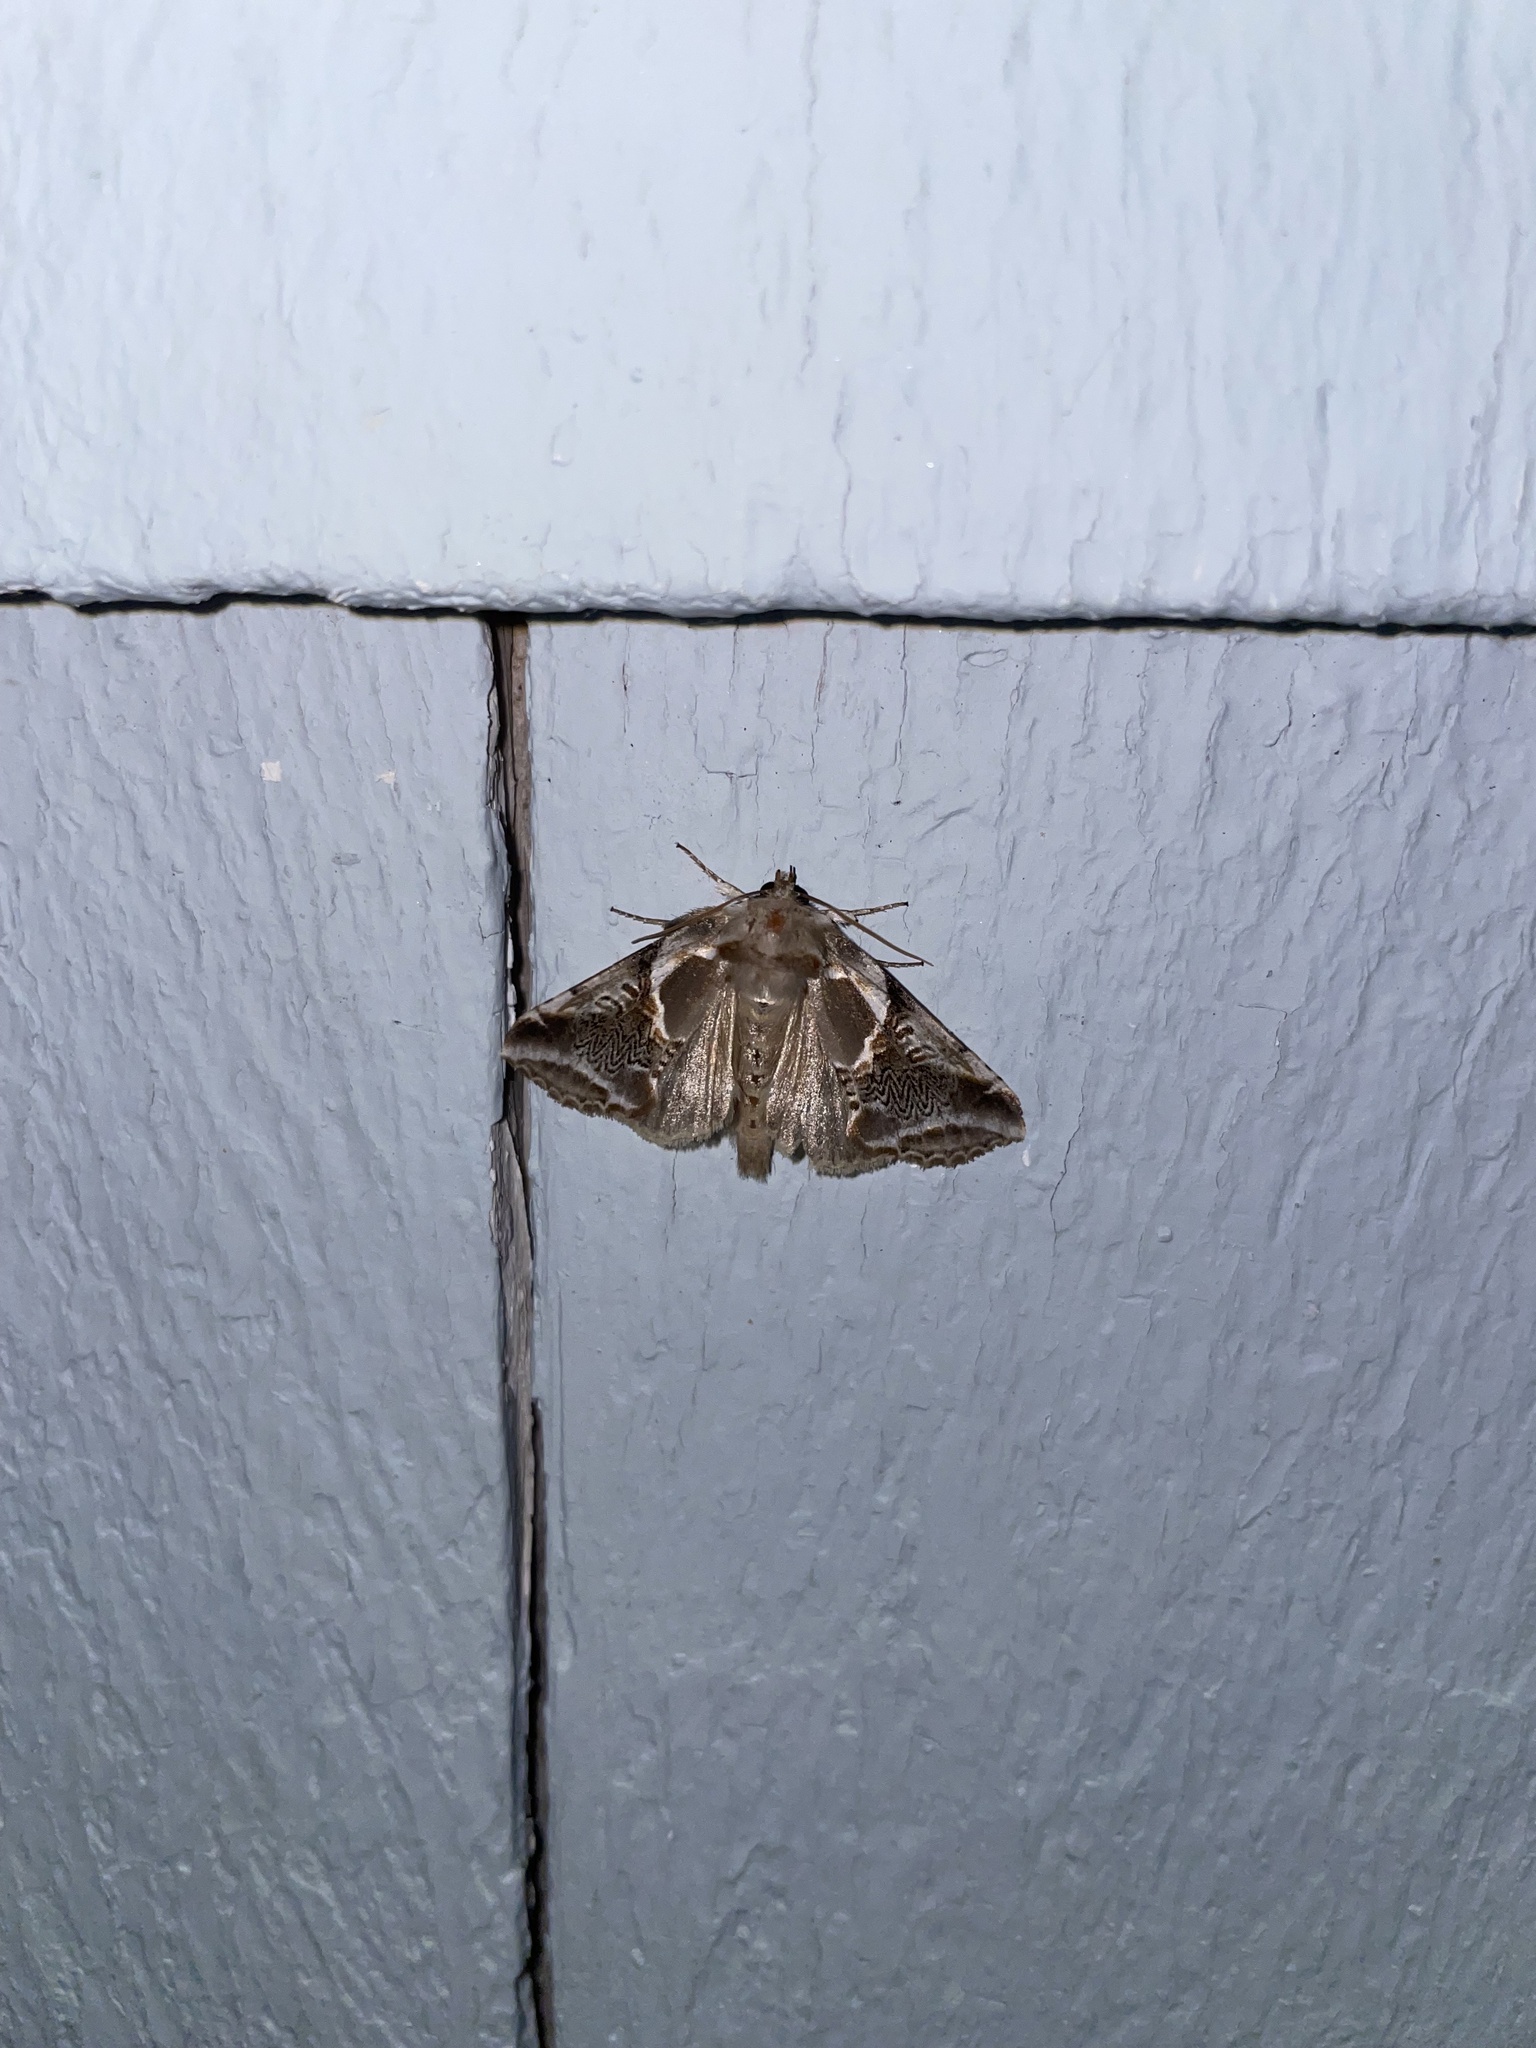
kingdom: Animalia
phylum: Arthropoda
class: Insecta
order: Lepidoptera
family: Drepanidae
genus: Habrosyne
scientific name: Habrosyne scripta
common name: Lettered habrosyne moth
